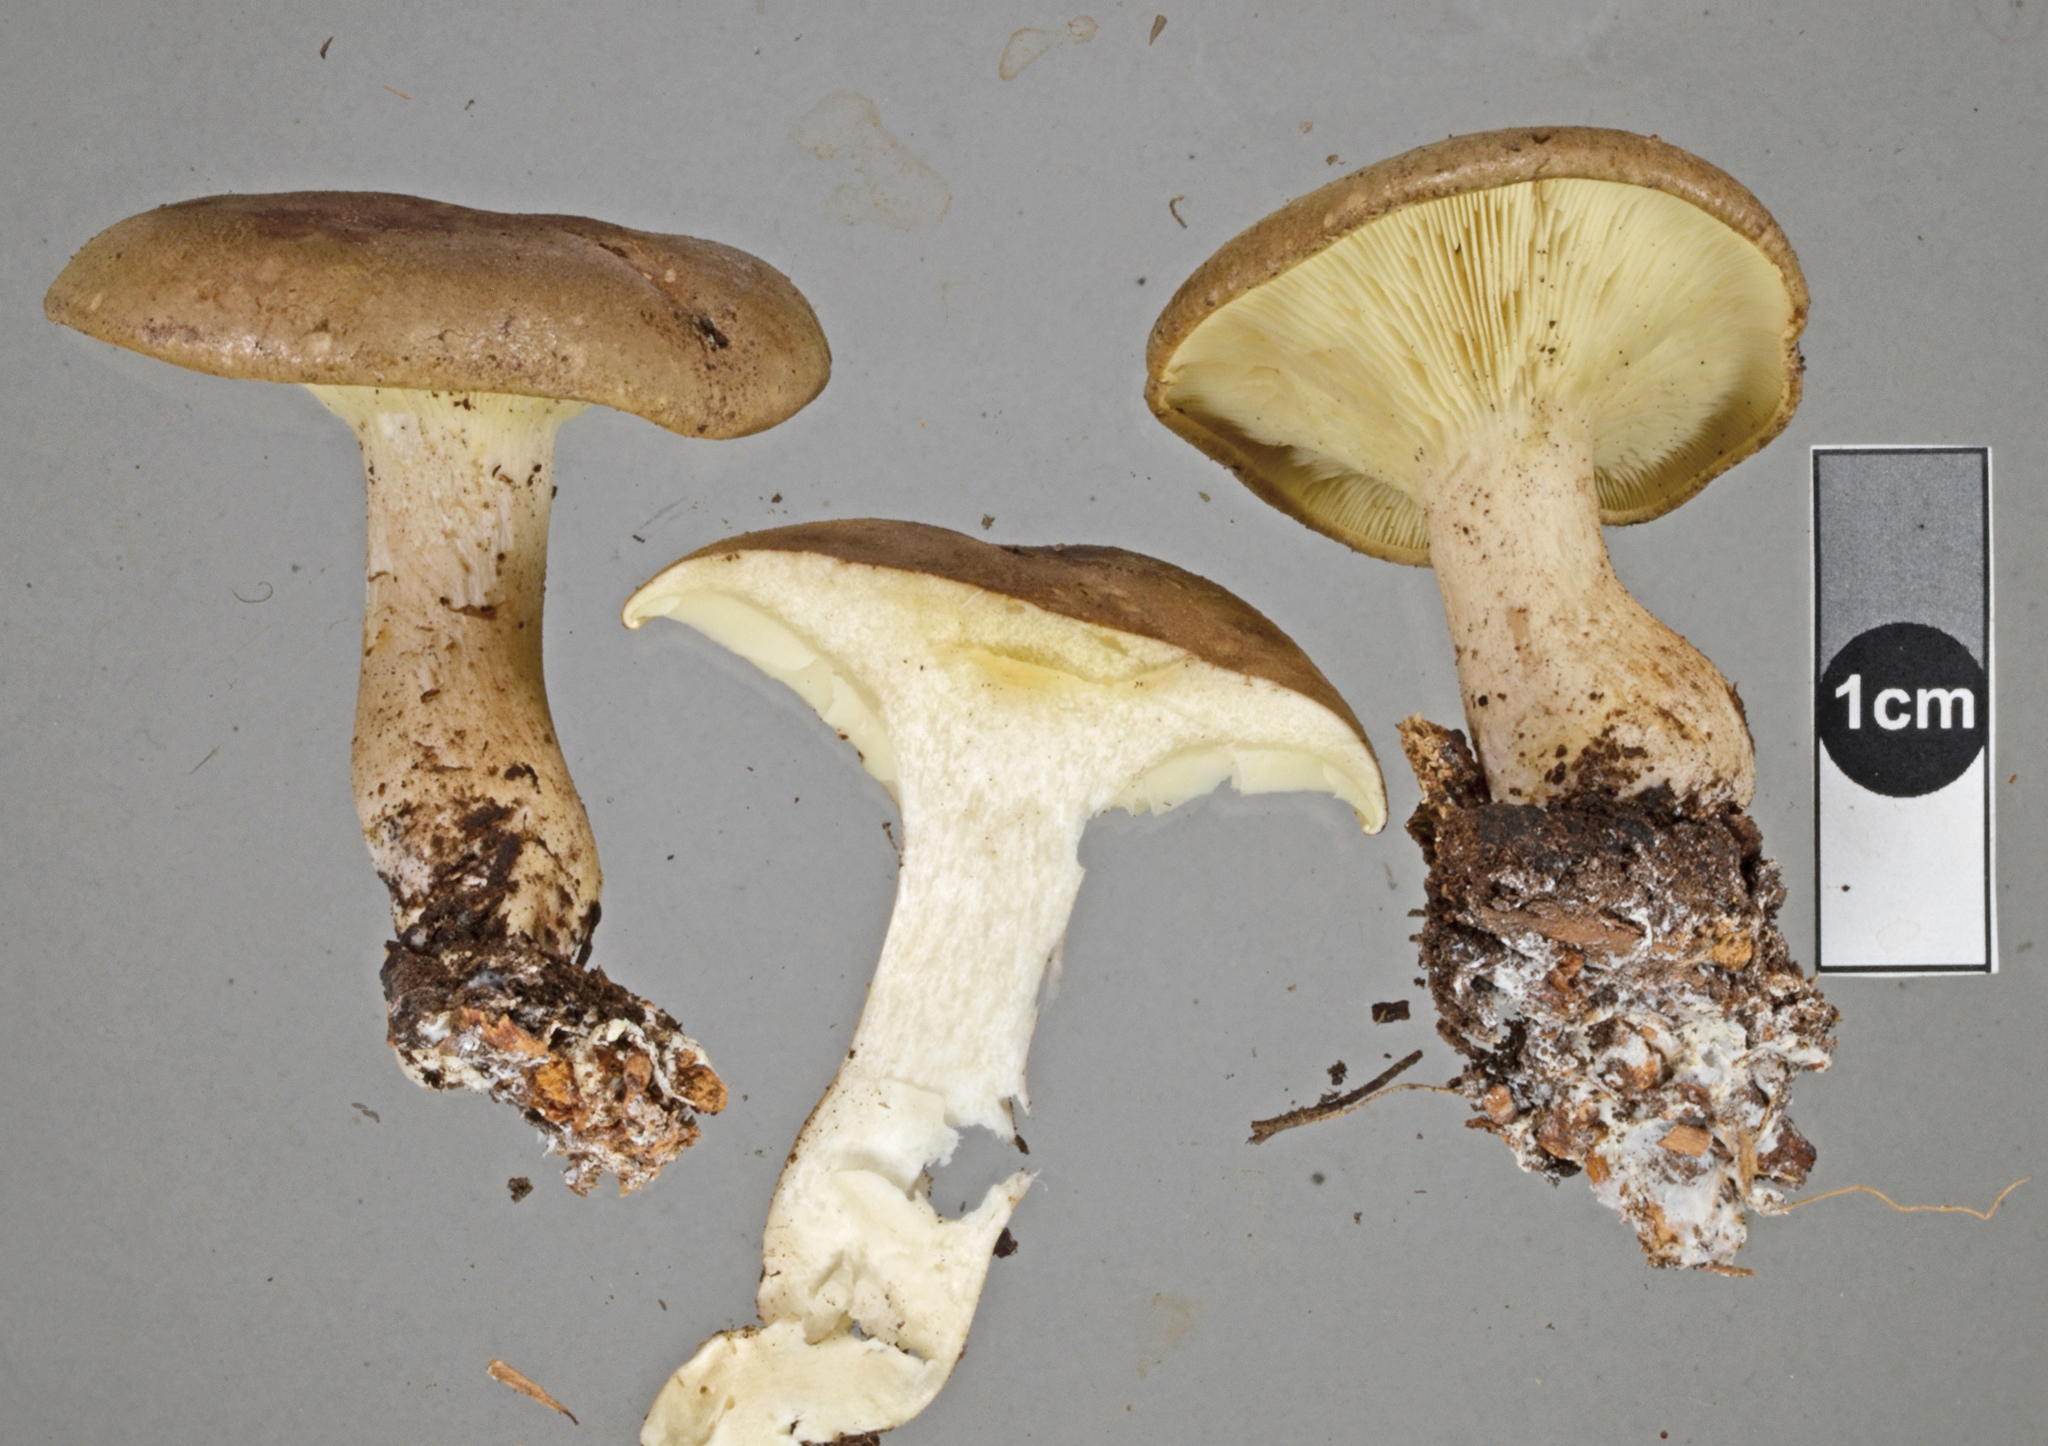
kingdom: Fungi
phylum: Basidiomycota
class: Agaricomycetes
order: Agaricales
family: Tricholomataceae
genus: Clitocybe
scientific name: Clitocybe eucalyptorum
